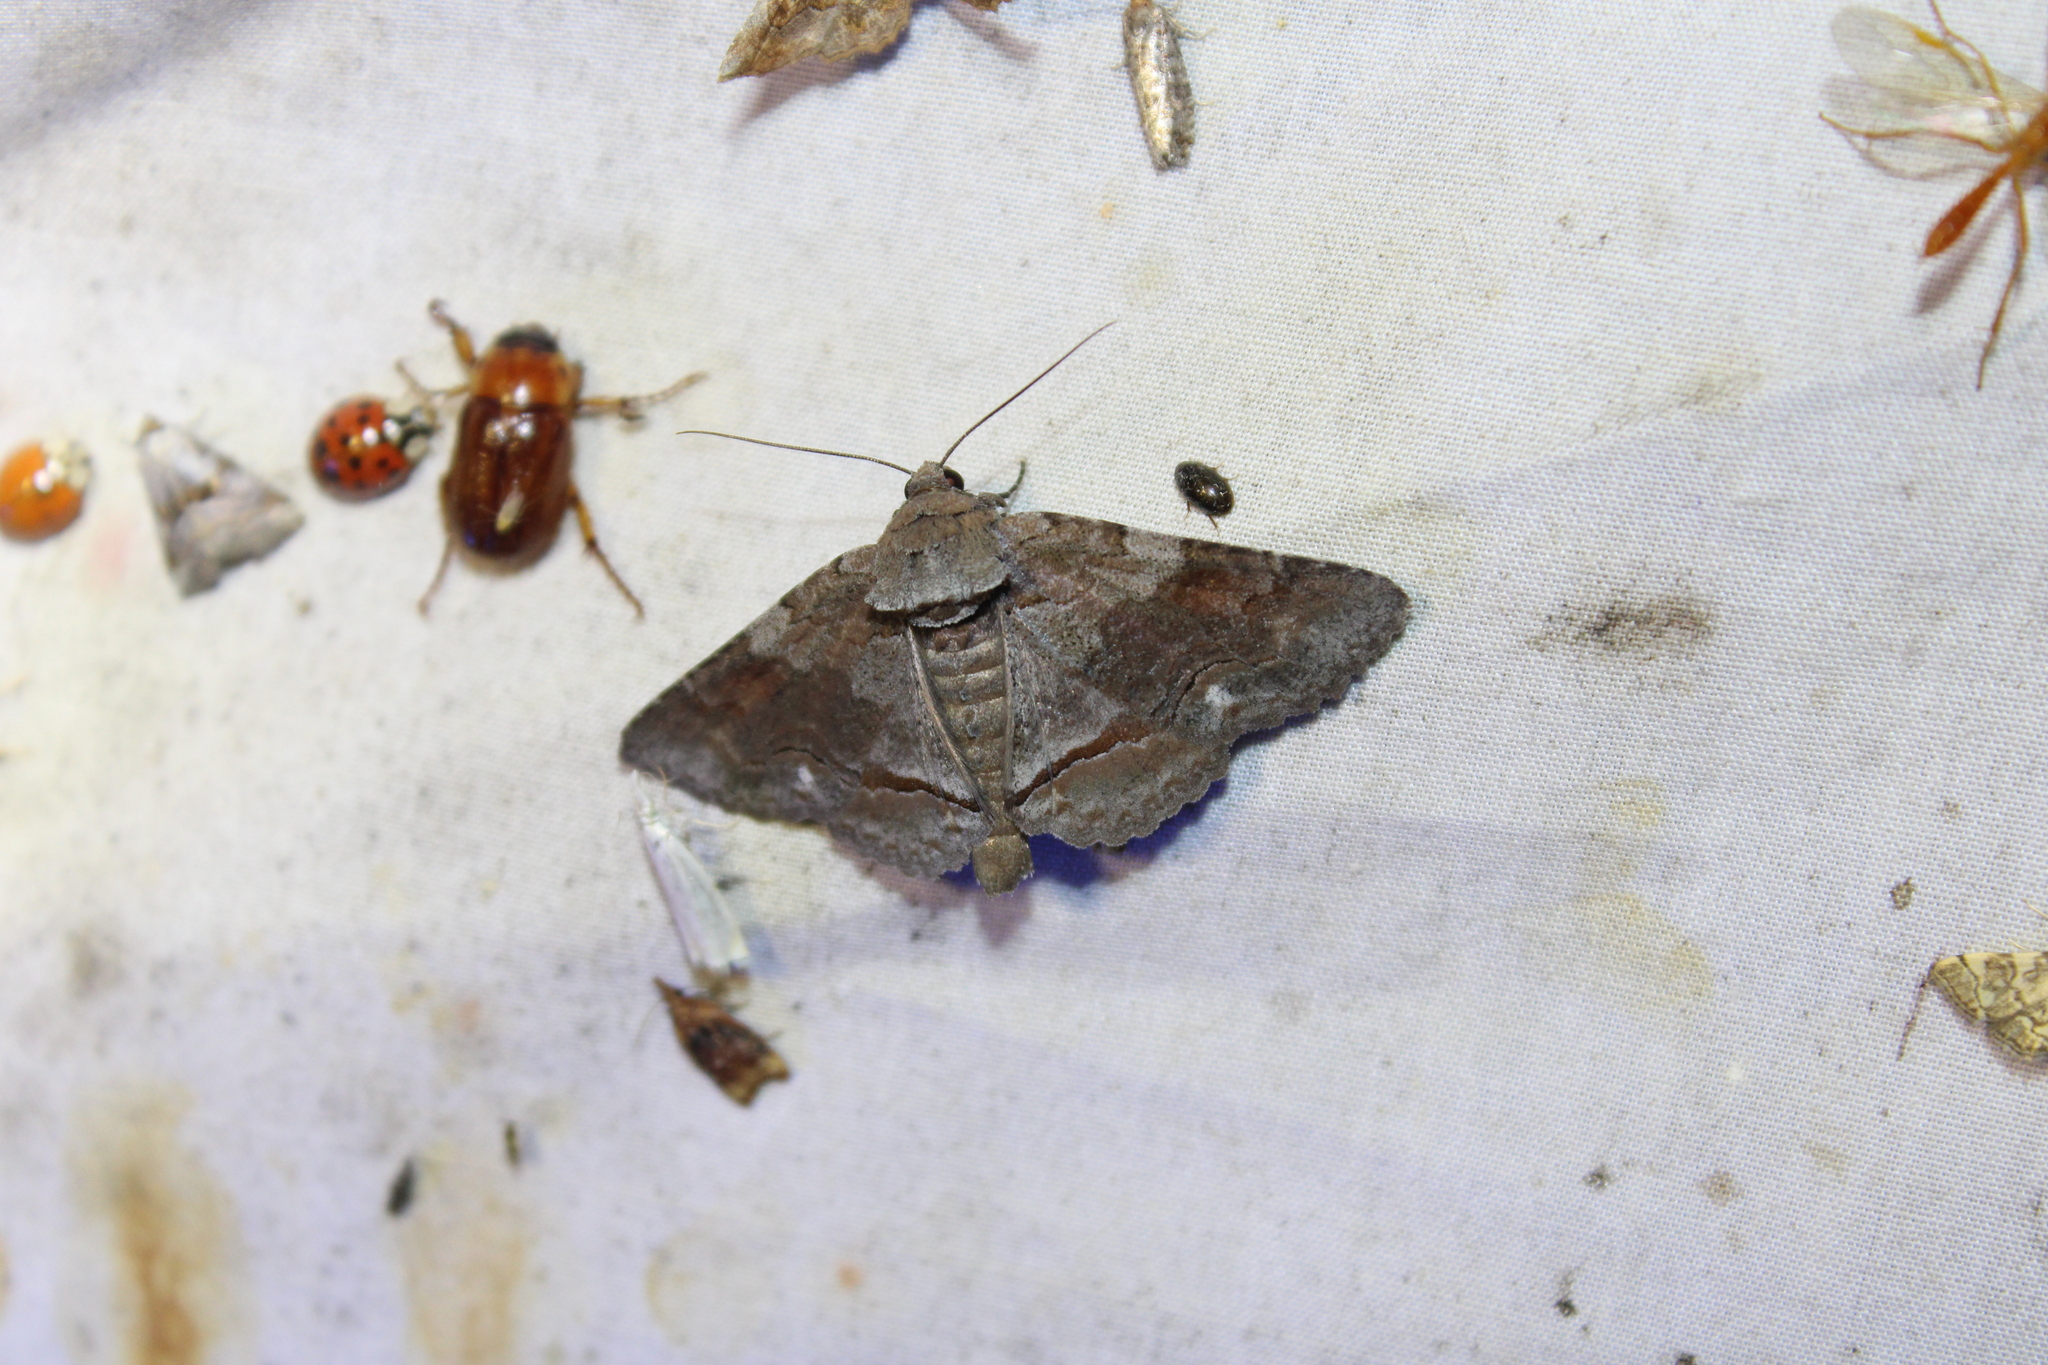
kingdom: Animalia
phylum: Arthropoda
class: Insecta
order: Lepidoptera
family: Erebidae
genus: Zale
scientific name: Zale submediana
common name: Gray spring zale
